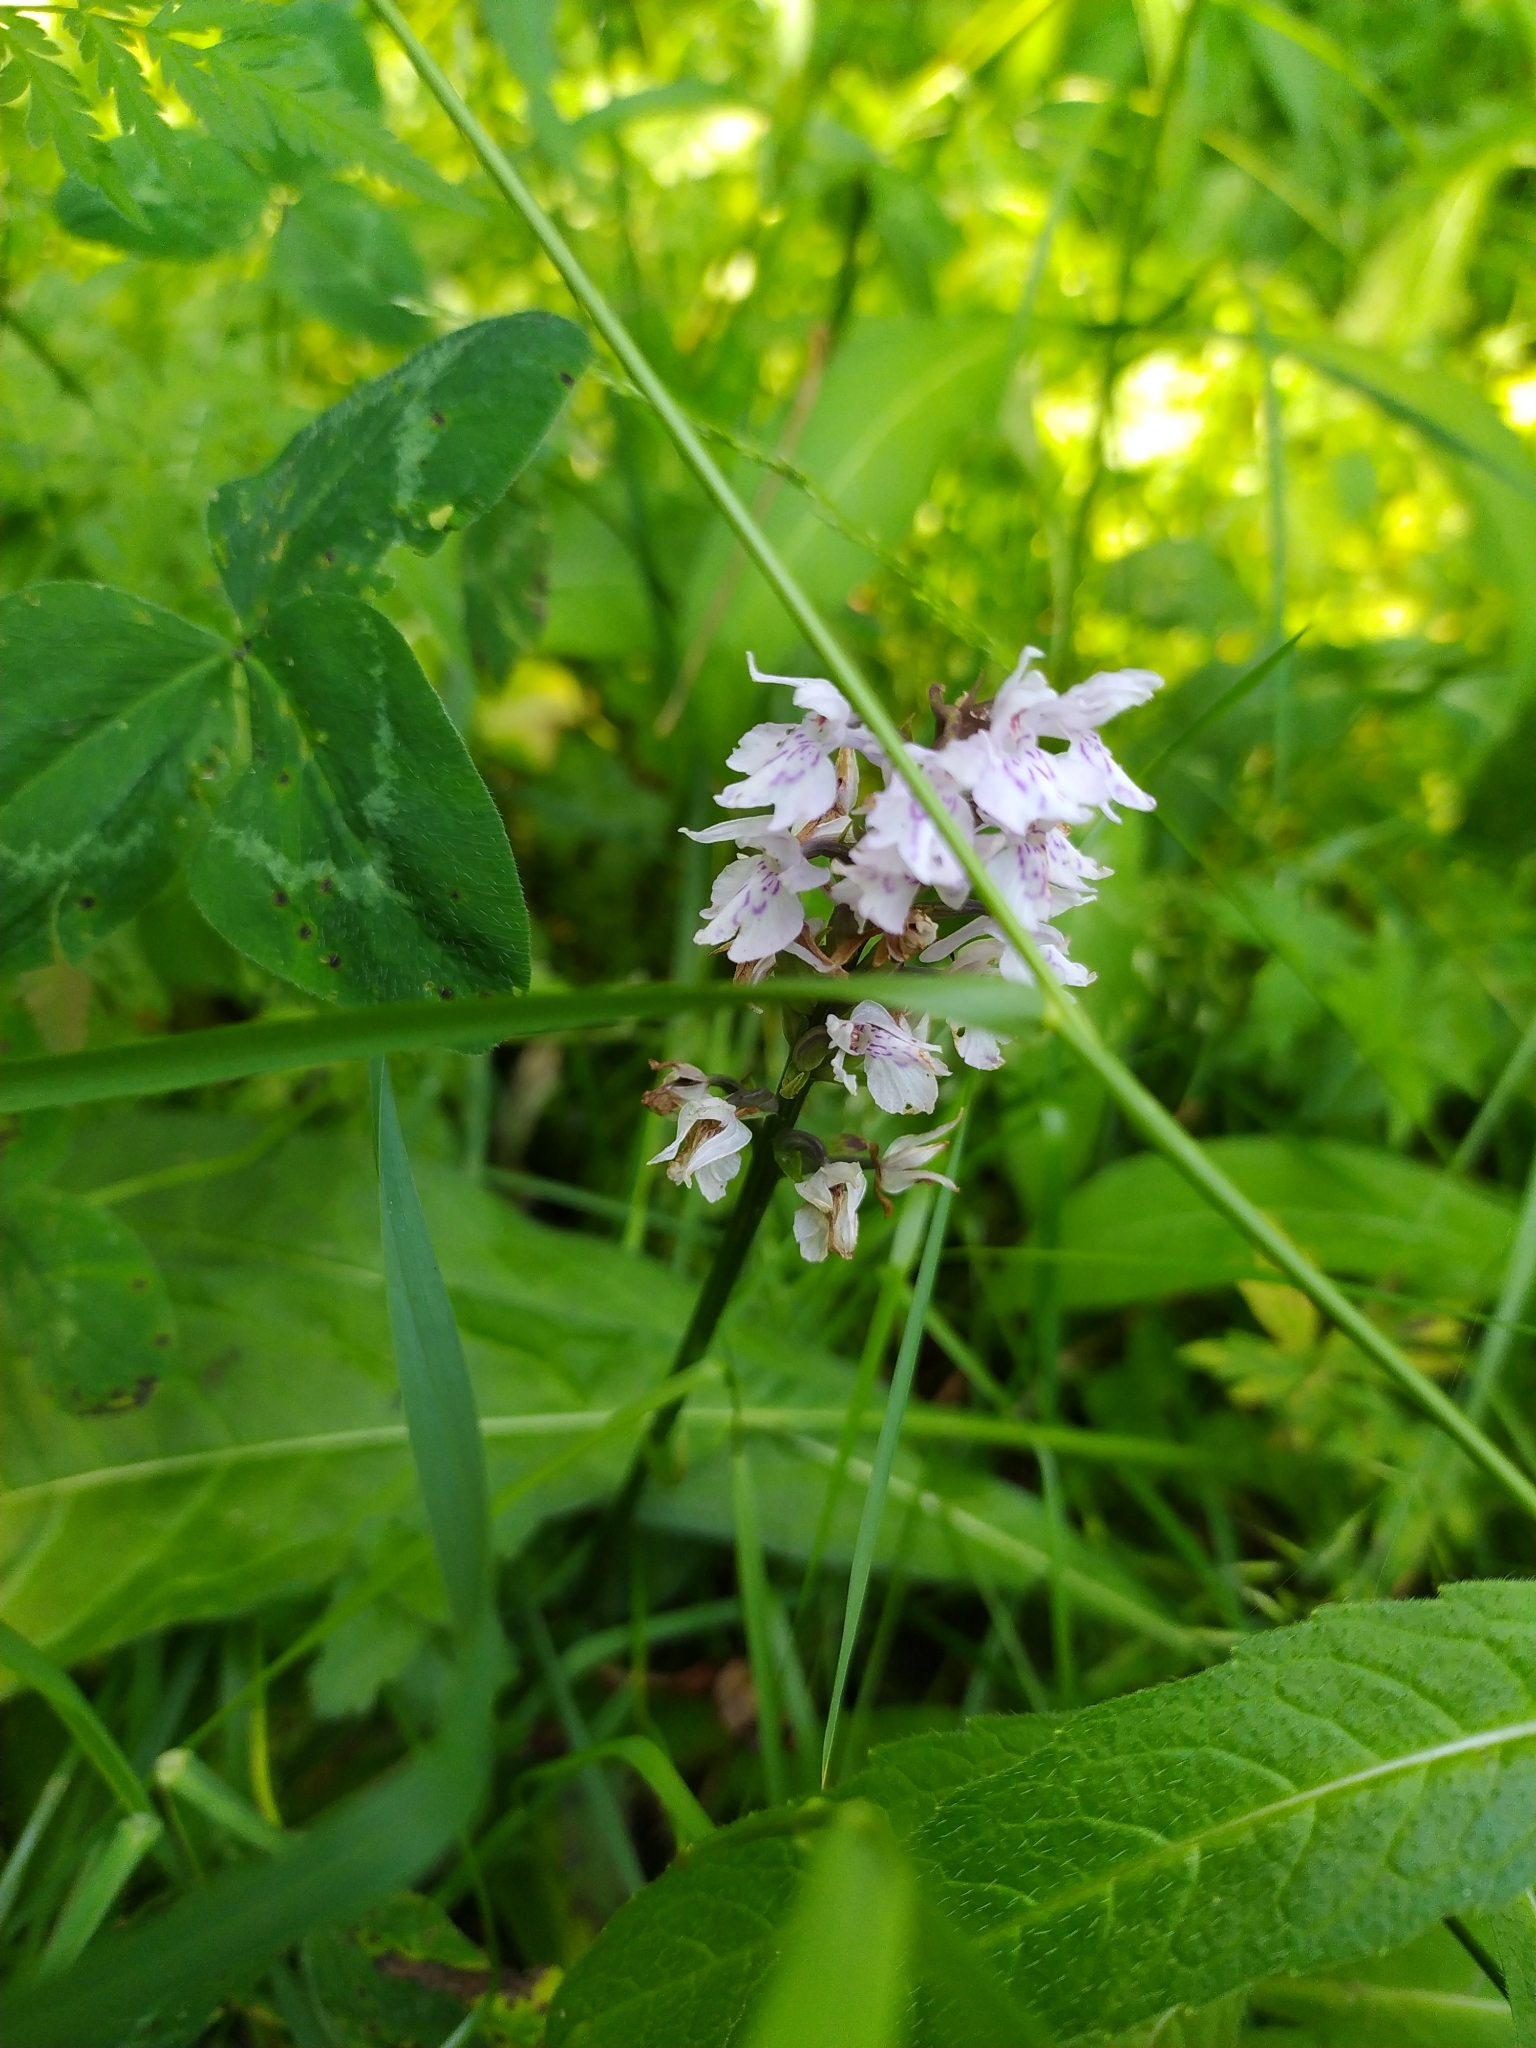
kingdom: Plantae
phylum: Tracheophyta
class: Liliopsida
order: Asparagales
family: Orchidaceae
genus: Dactylorhiza
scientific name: Dactylorhiza maculata
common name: Heath spotted-orchid
